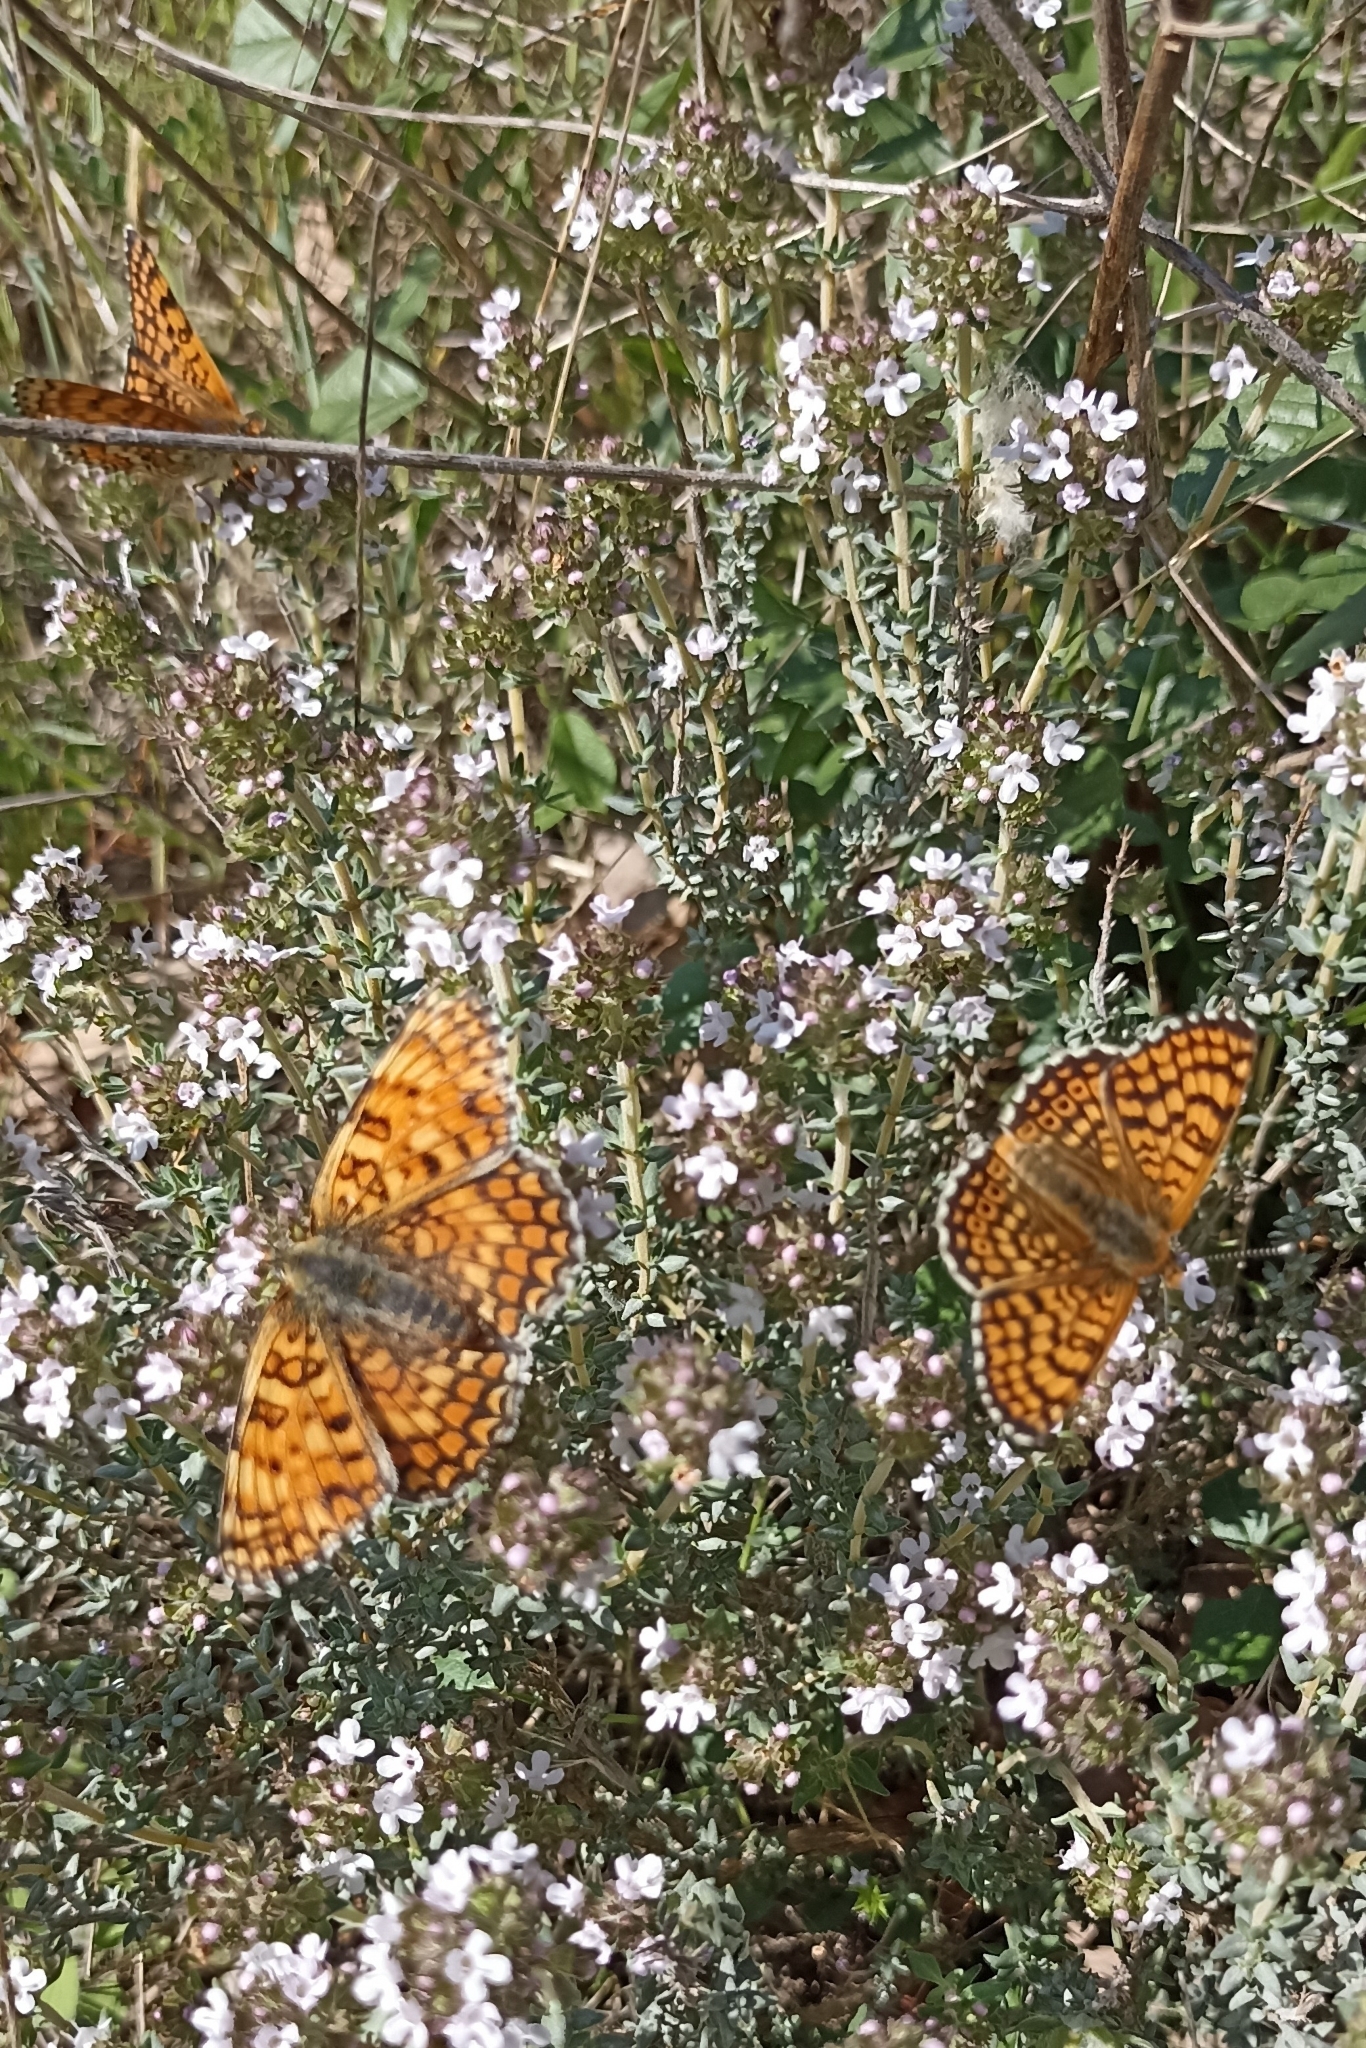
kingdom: Animalia
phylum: Arthropoda
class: Insecta
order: Lepidoptera
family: Nymphalidae
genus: Melitaea
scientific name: Melitaea cinxia
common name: Glanville fritillary
